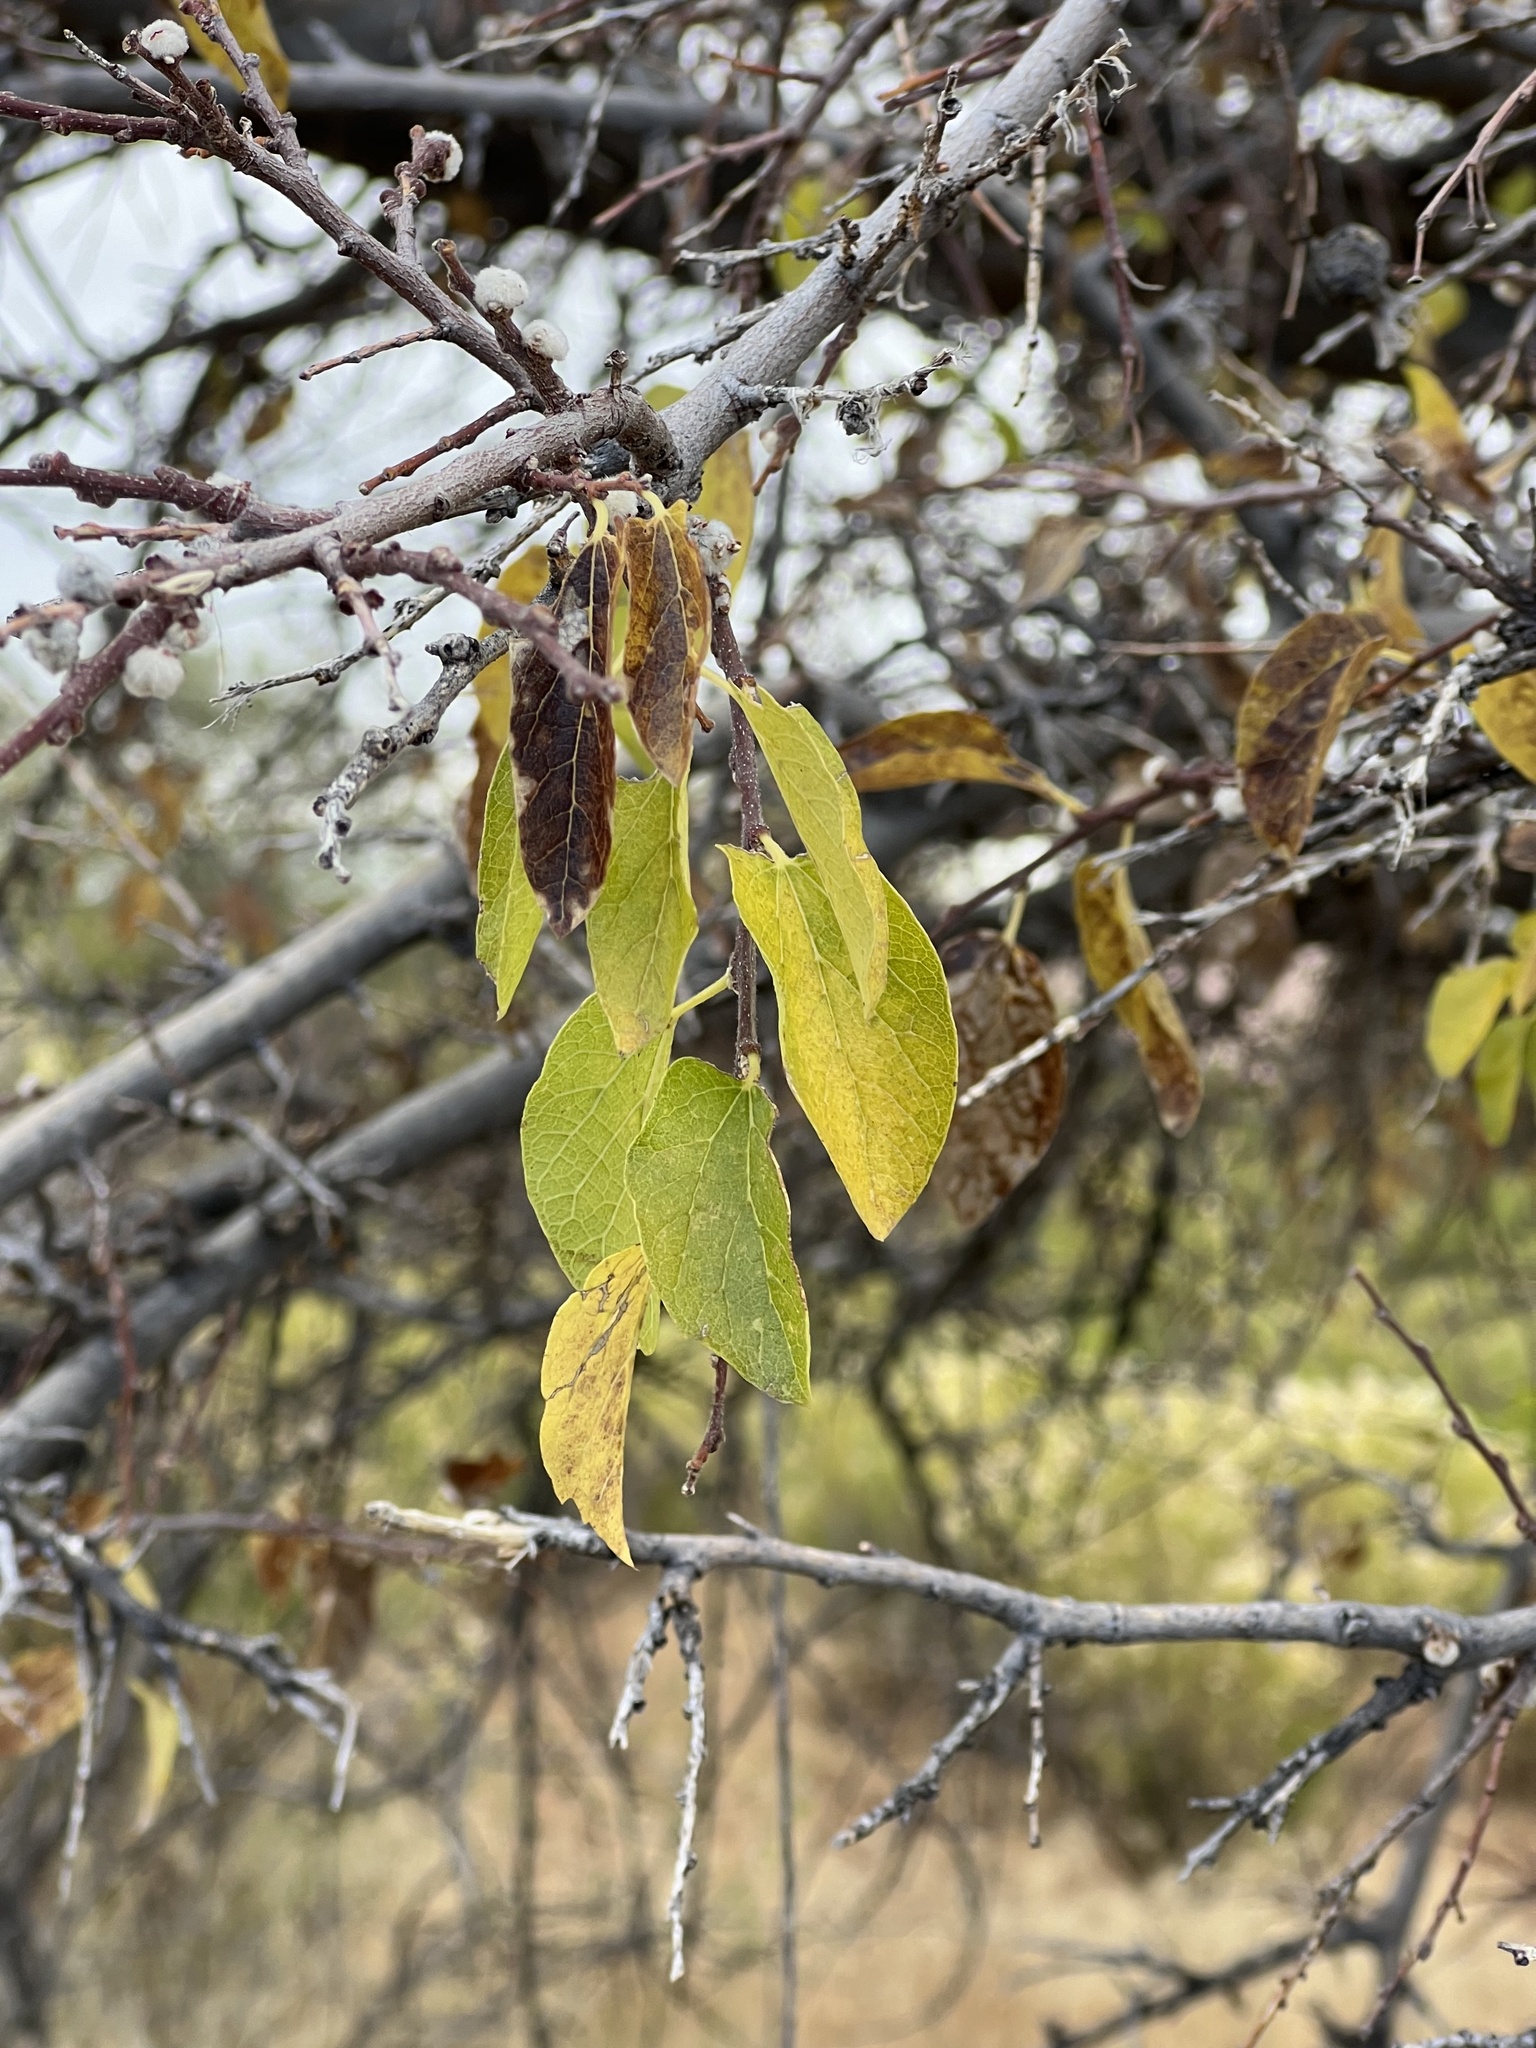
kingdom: Plantae
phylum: Tracheophyta
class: Magnoliopsida
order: Rosales
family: Cannabaceae
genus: Celtis
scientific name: Celtis reticulata
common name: Netleaf hackberry
